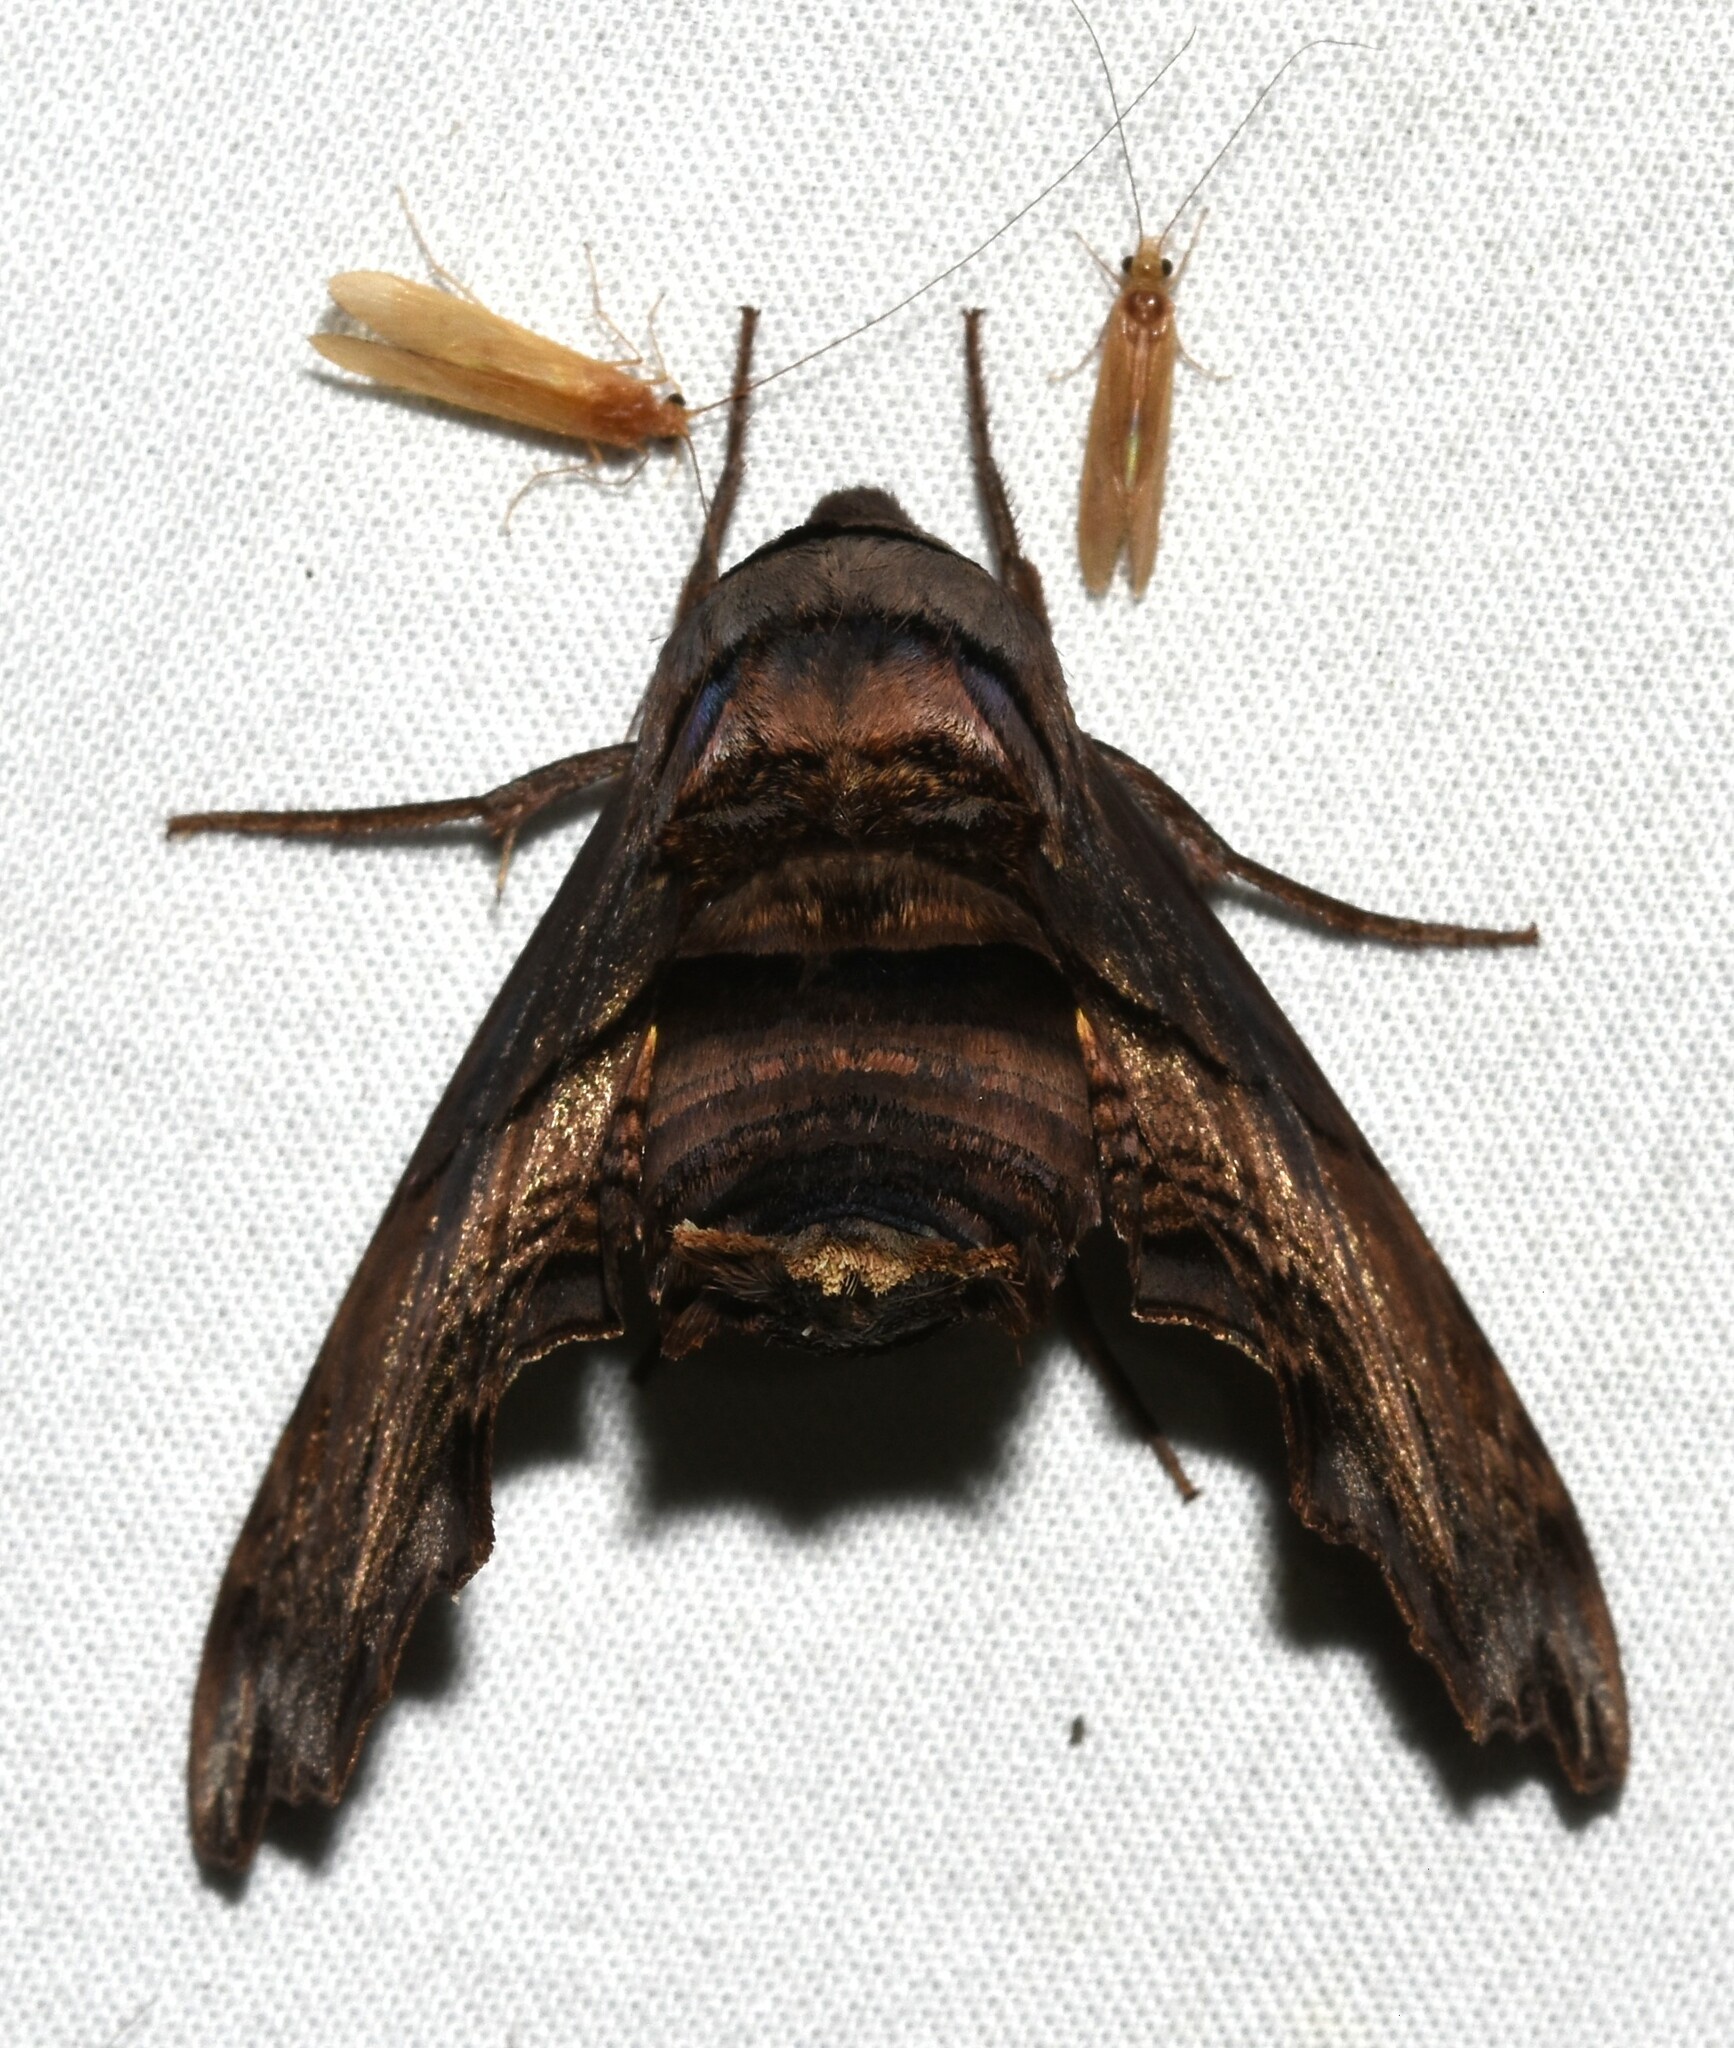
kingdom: Animalia
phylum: Arthropoda
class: Insecta
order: Lepidoptera
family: Sphingidae
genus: Sphecodina
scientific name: Sphecodina abbottii
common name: Abbott's sphinx
